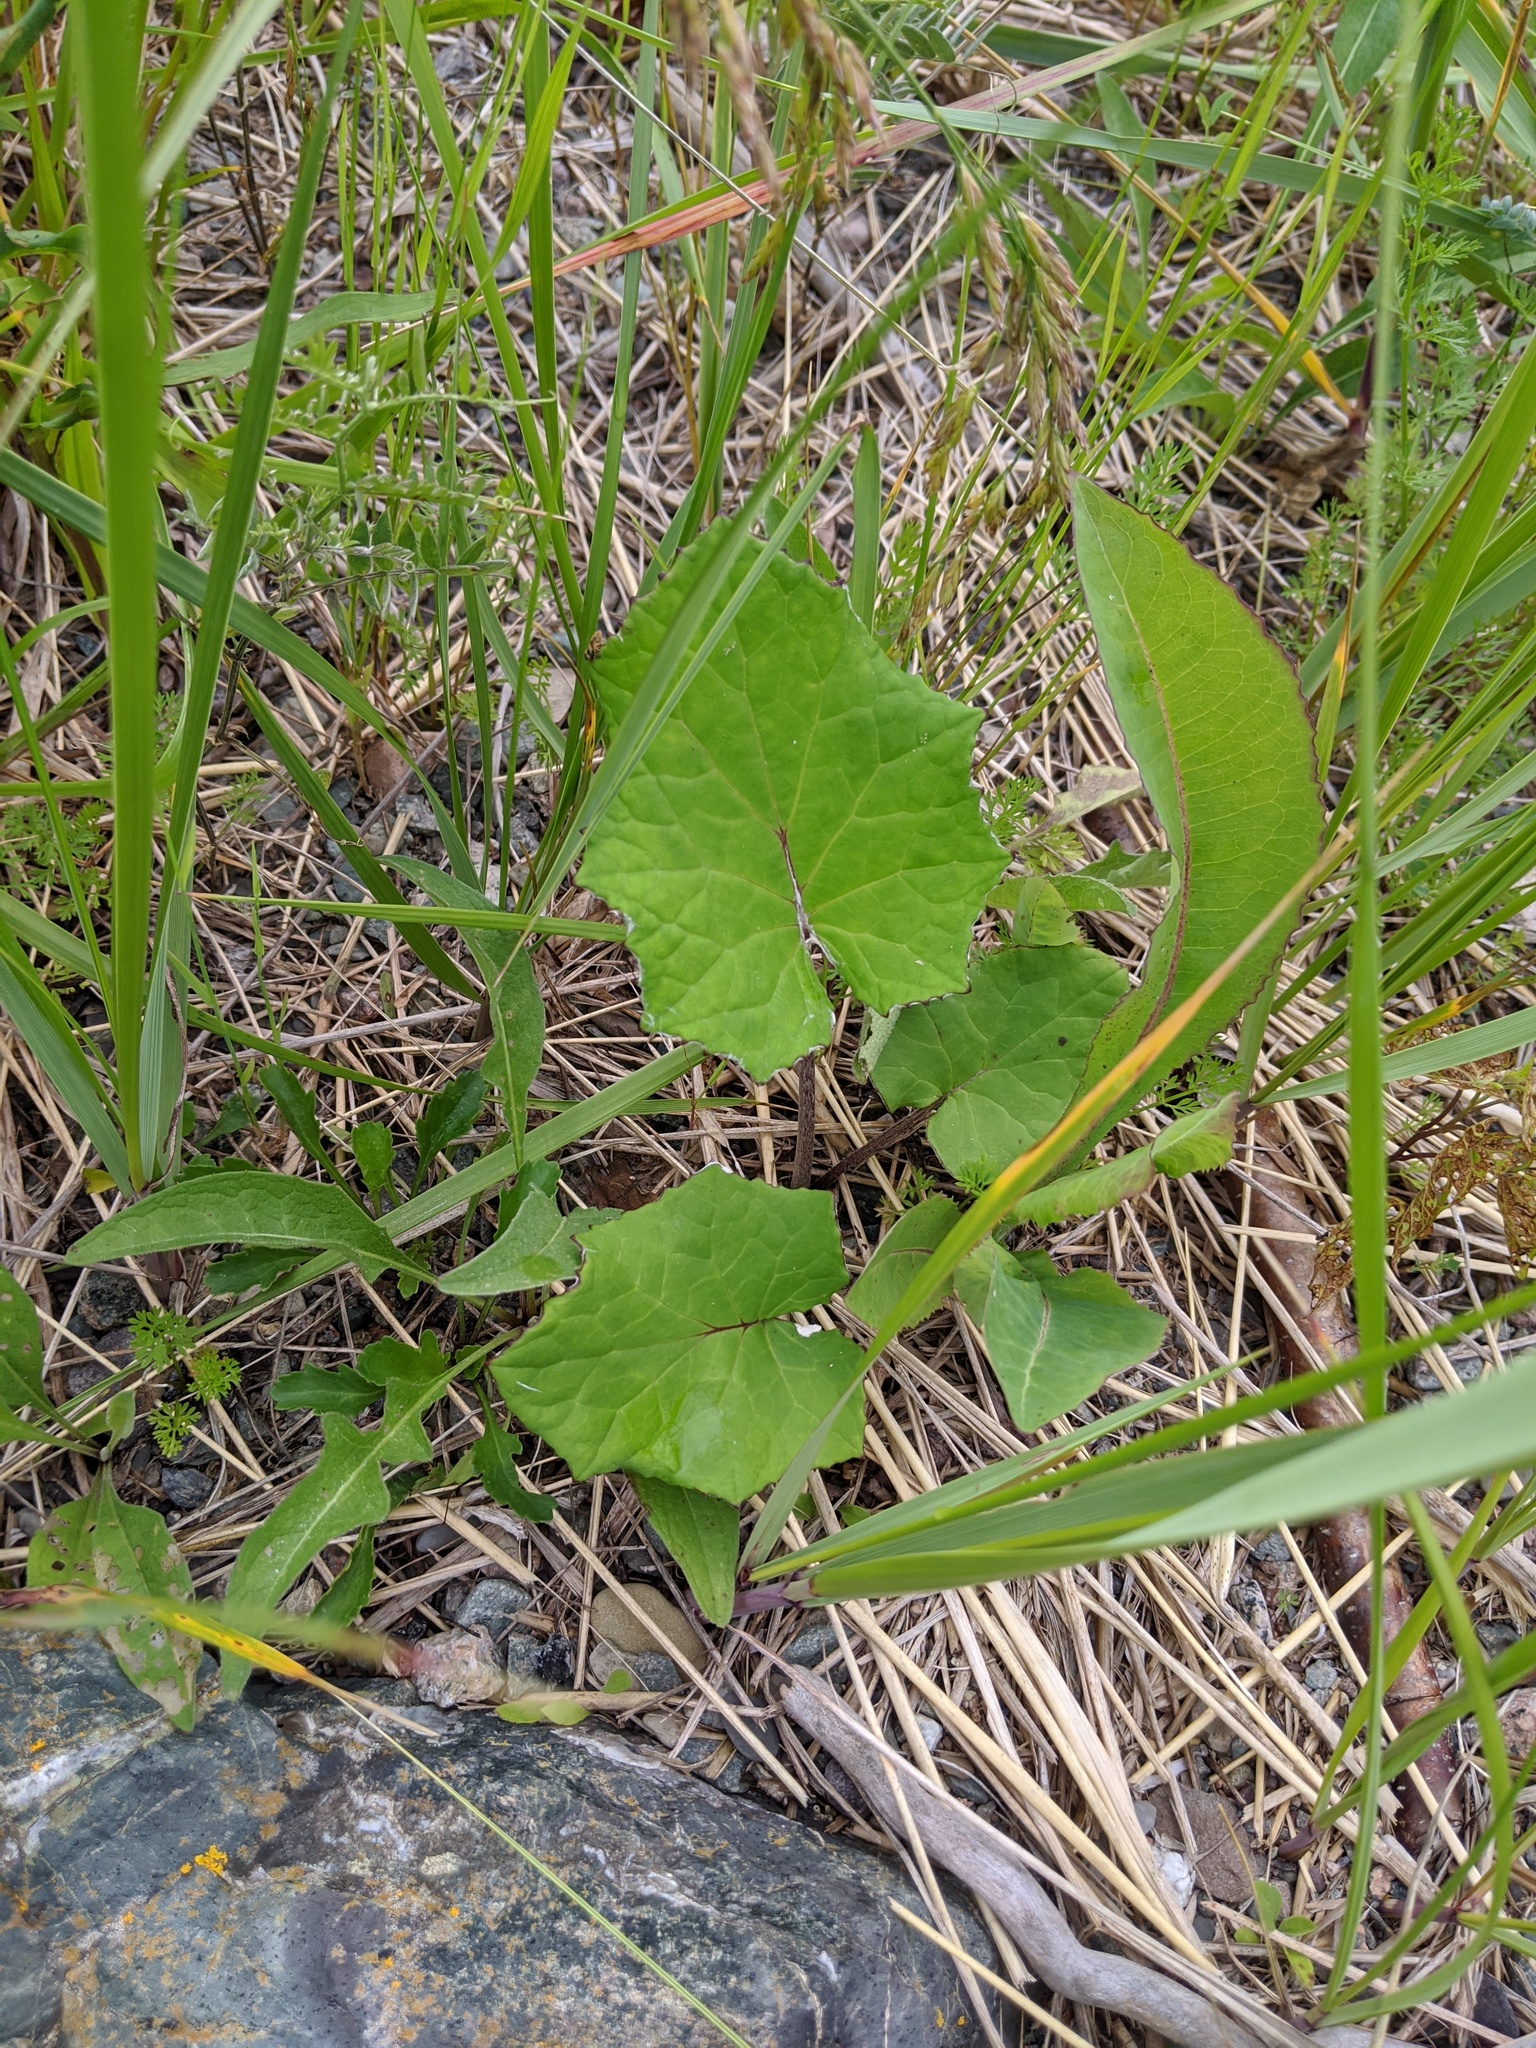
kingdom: Plantae
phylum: Tracheophyta
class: Magnoliopsida
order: Asterales
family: Asteraceae
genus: Tussilago
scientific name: Tussilago farfara
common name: Coltsfoot
